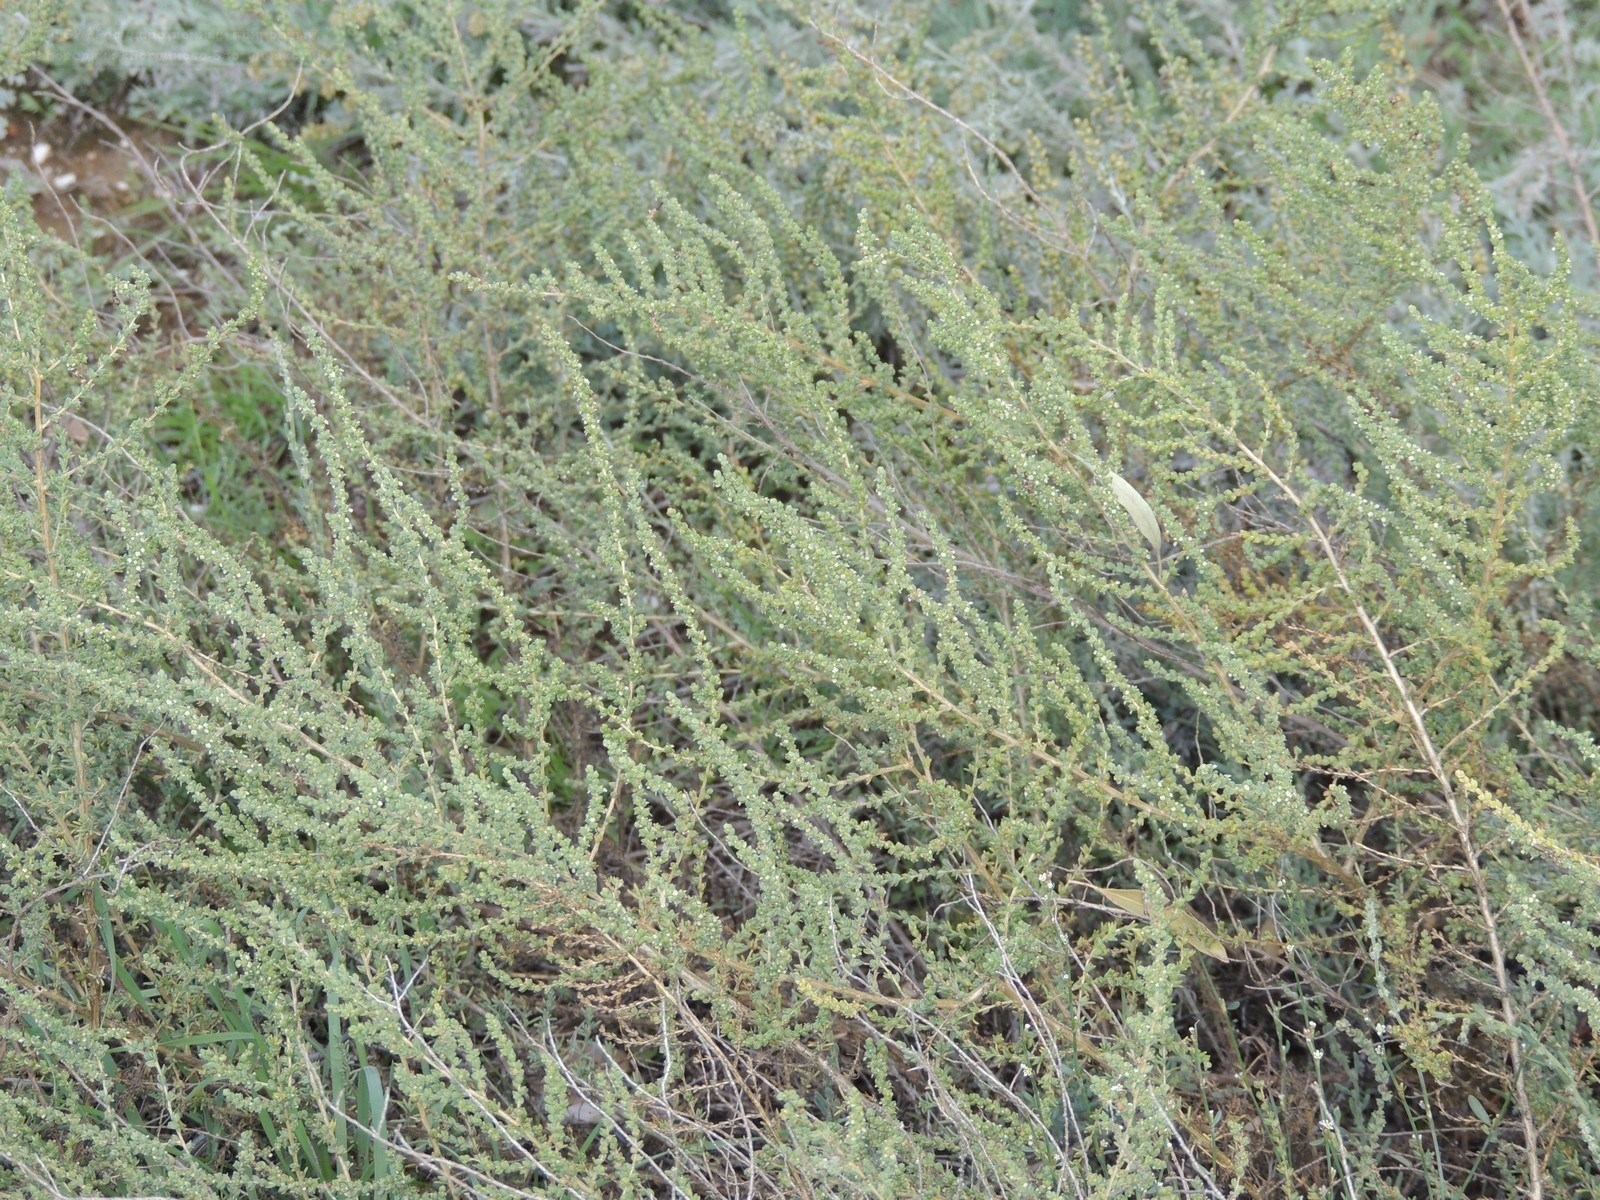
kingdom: Plantae
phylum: Tracheophyta
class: Magnoliopsida
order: Caryophyllales
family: Amaranthaceae
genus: Nitrosalsola
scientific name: Nitrosalsola laricina
